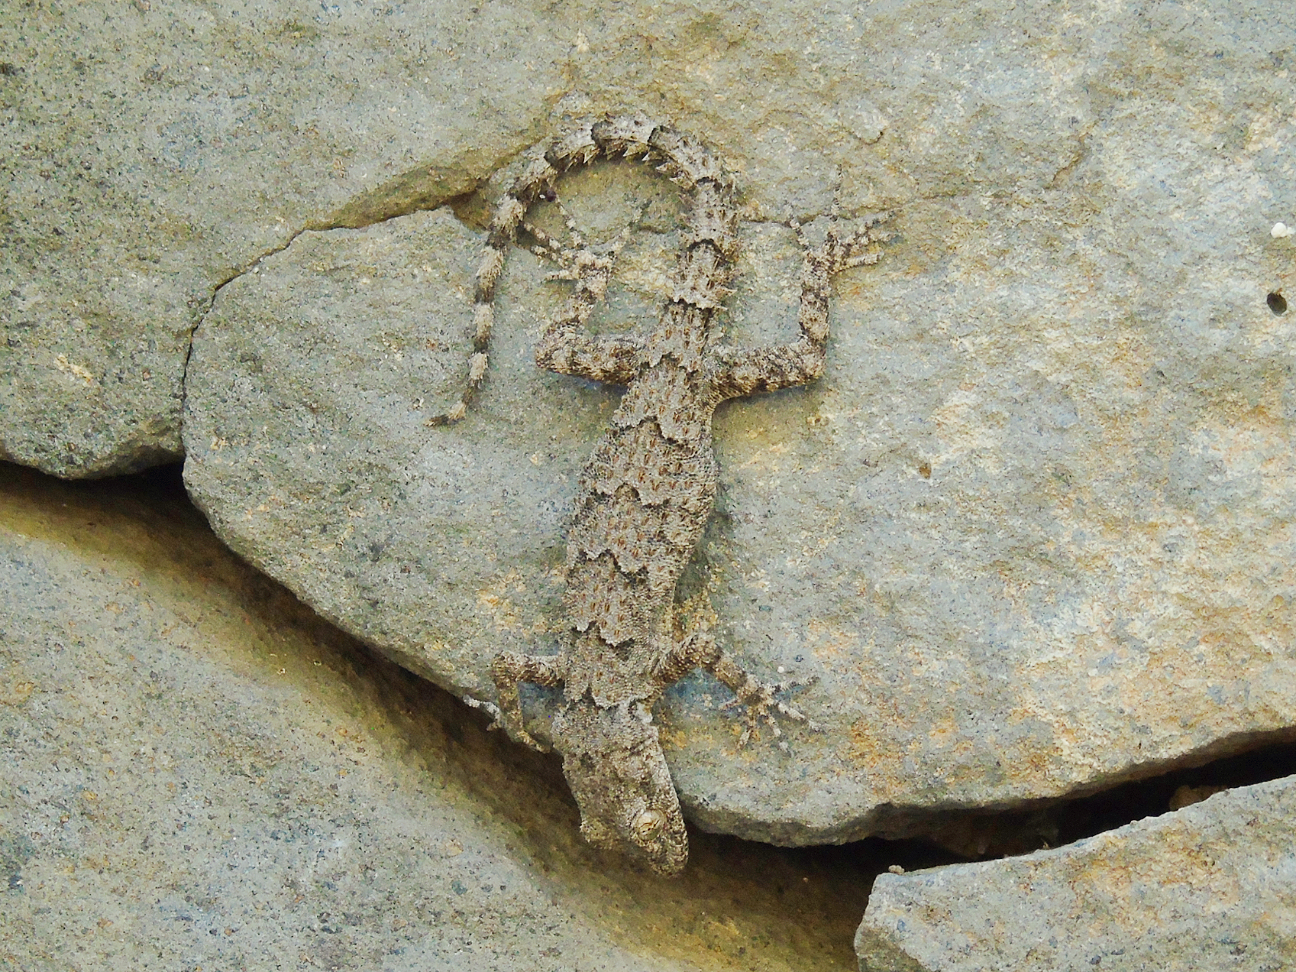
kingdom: Animalia
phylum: Chordata
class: Squamata
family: Gekkonidae
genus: Mediodactylus
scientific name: Mediodactylus heterocercus
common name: Asia minor thin-toed gecko
